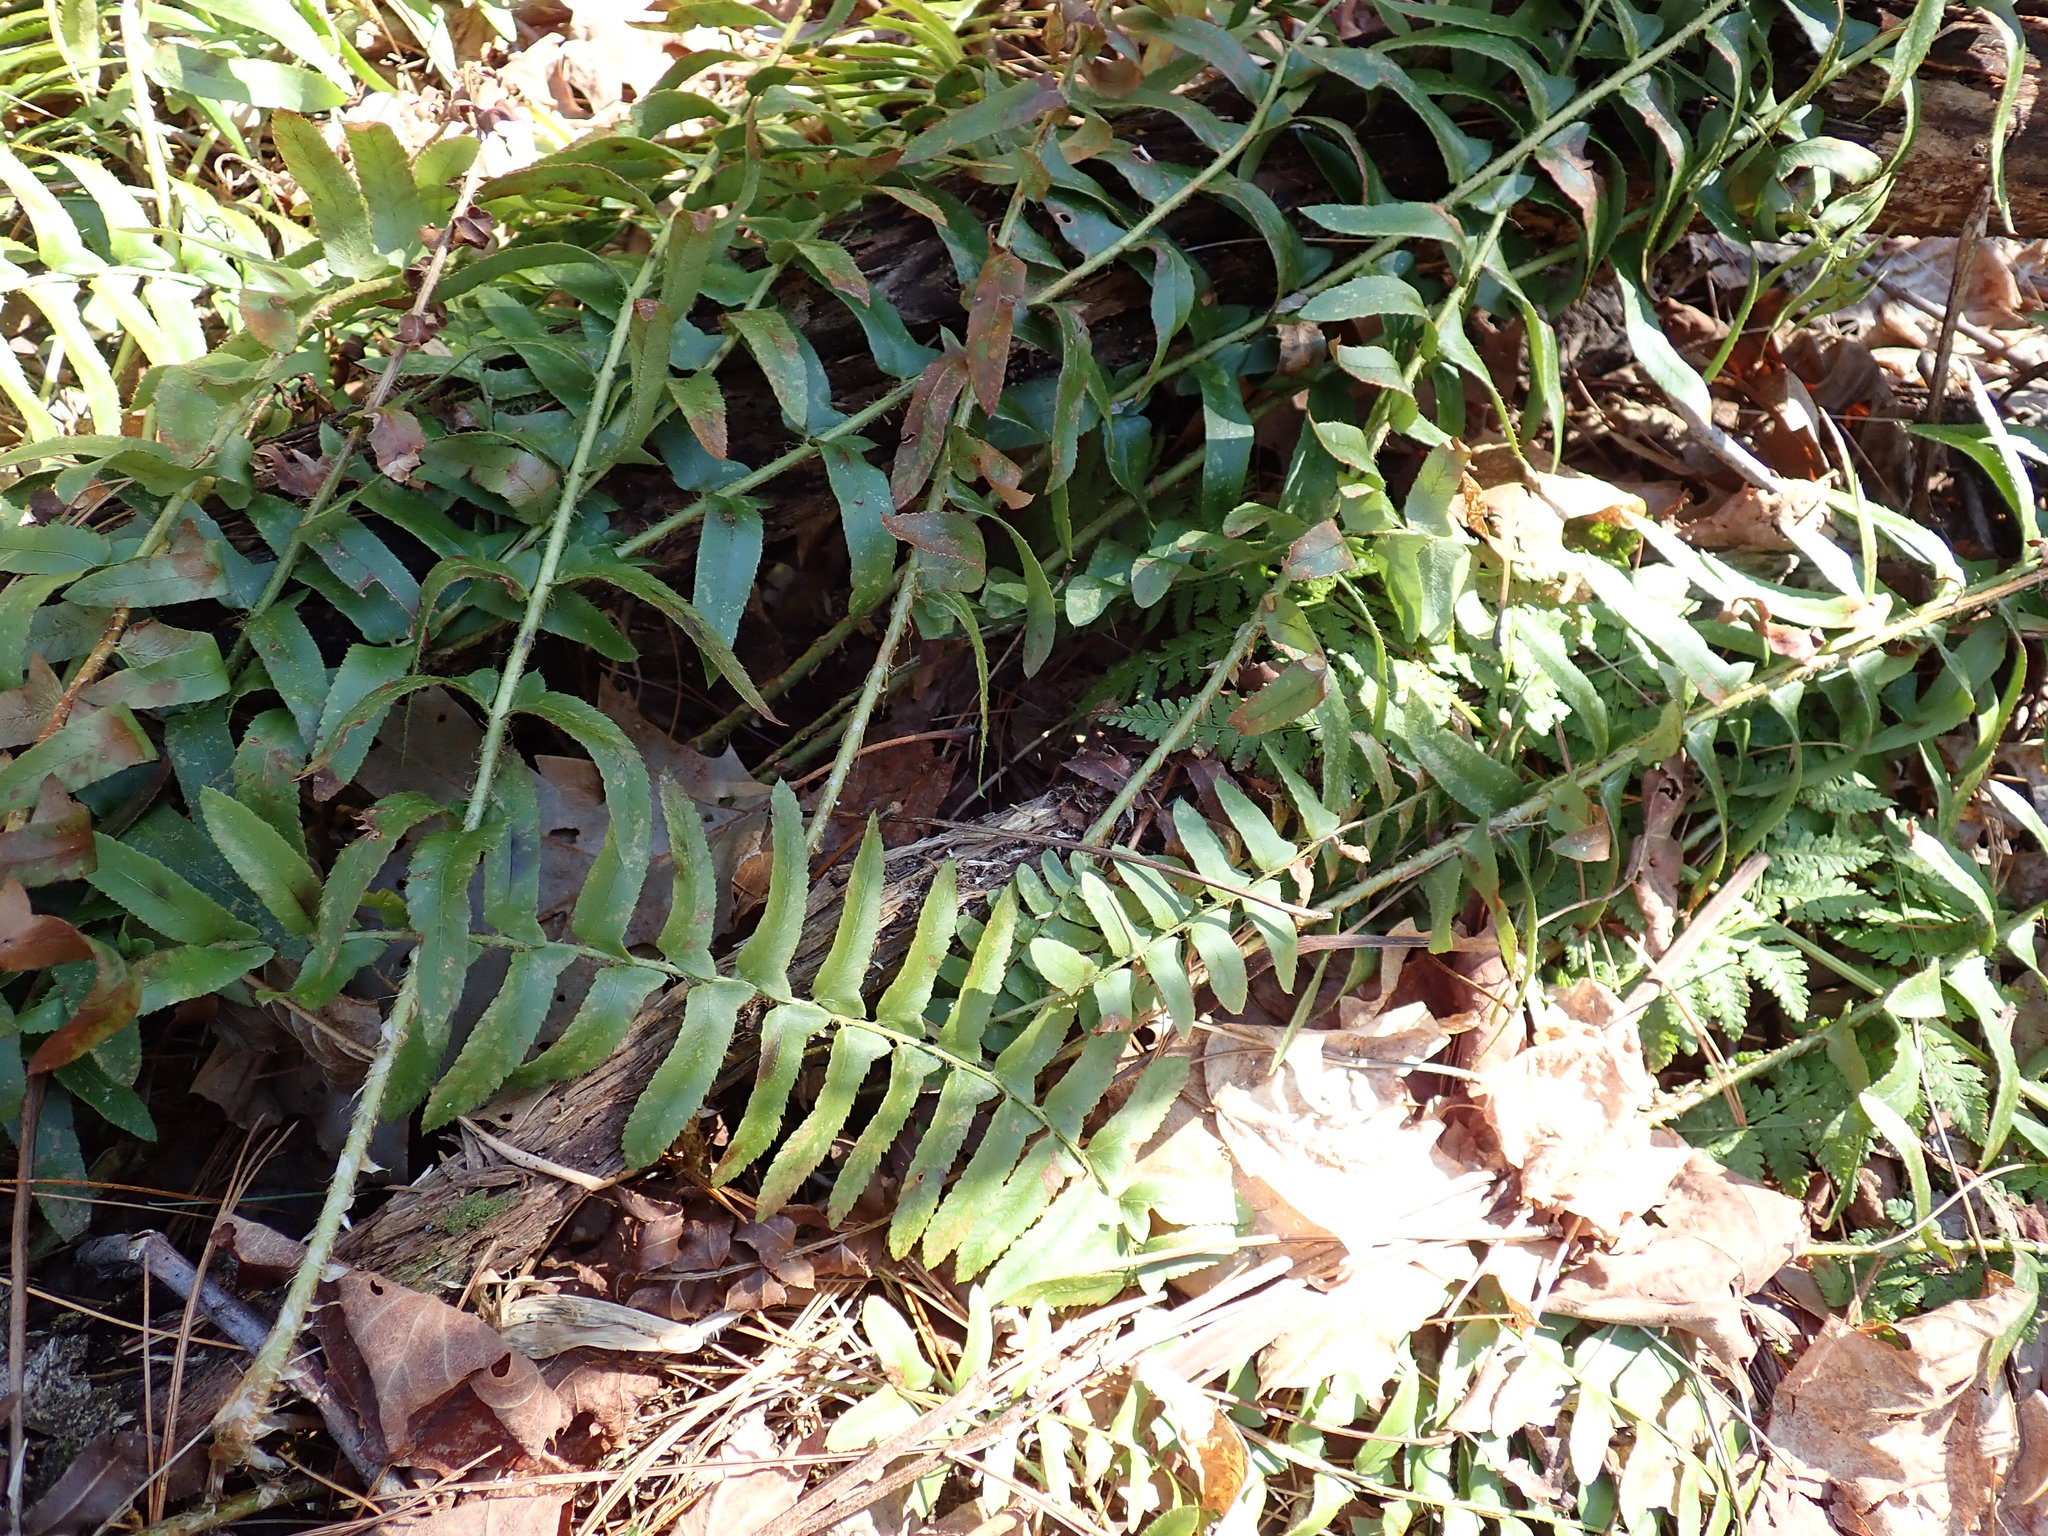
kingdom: Plantae
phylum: Tracheophyta
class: Polypodiopsida
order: Polypodiales
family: Dryopteridaceae
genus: Polystichum
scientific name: Polystichum acrostichoides
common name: Christmas fern
